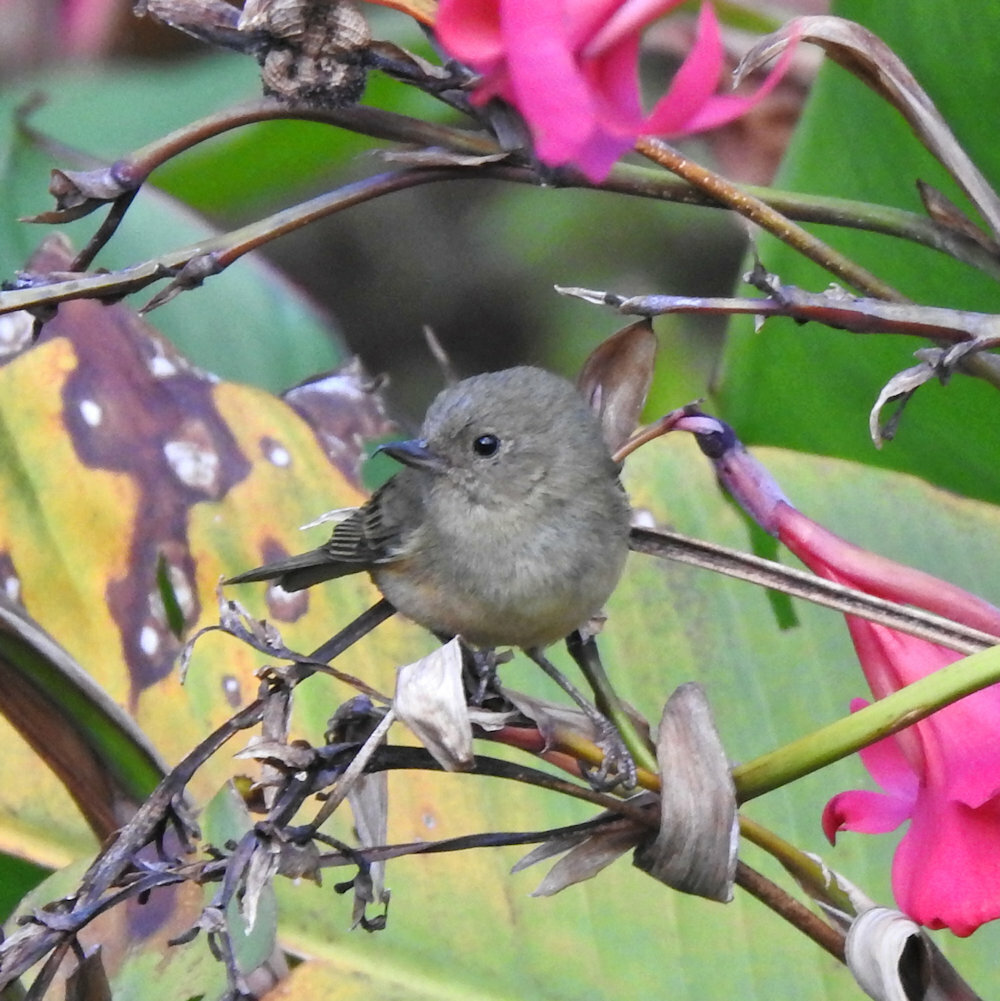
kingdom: Animalia
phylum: Chordata
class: Aves
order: Passeriformes
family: Thraupidae
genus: Diglossa
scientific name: Diglossa plumbea
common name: Slaty flowerpiercer
